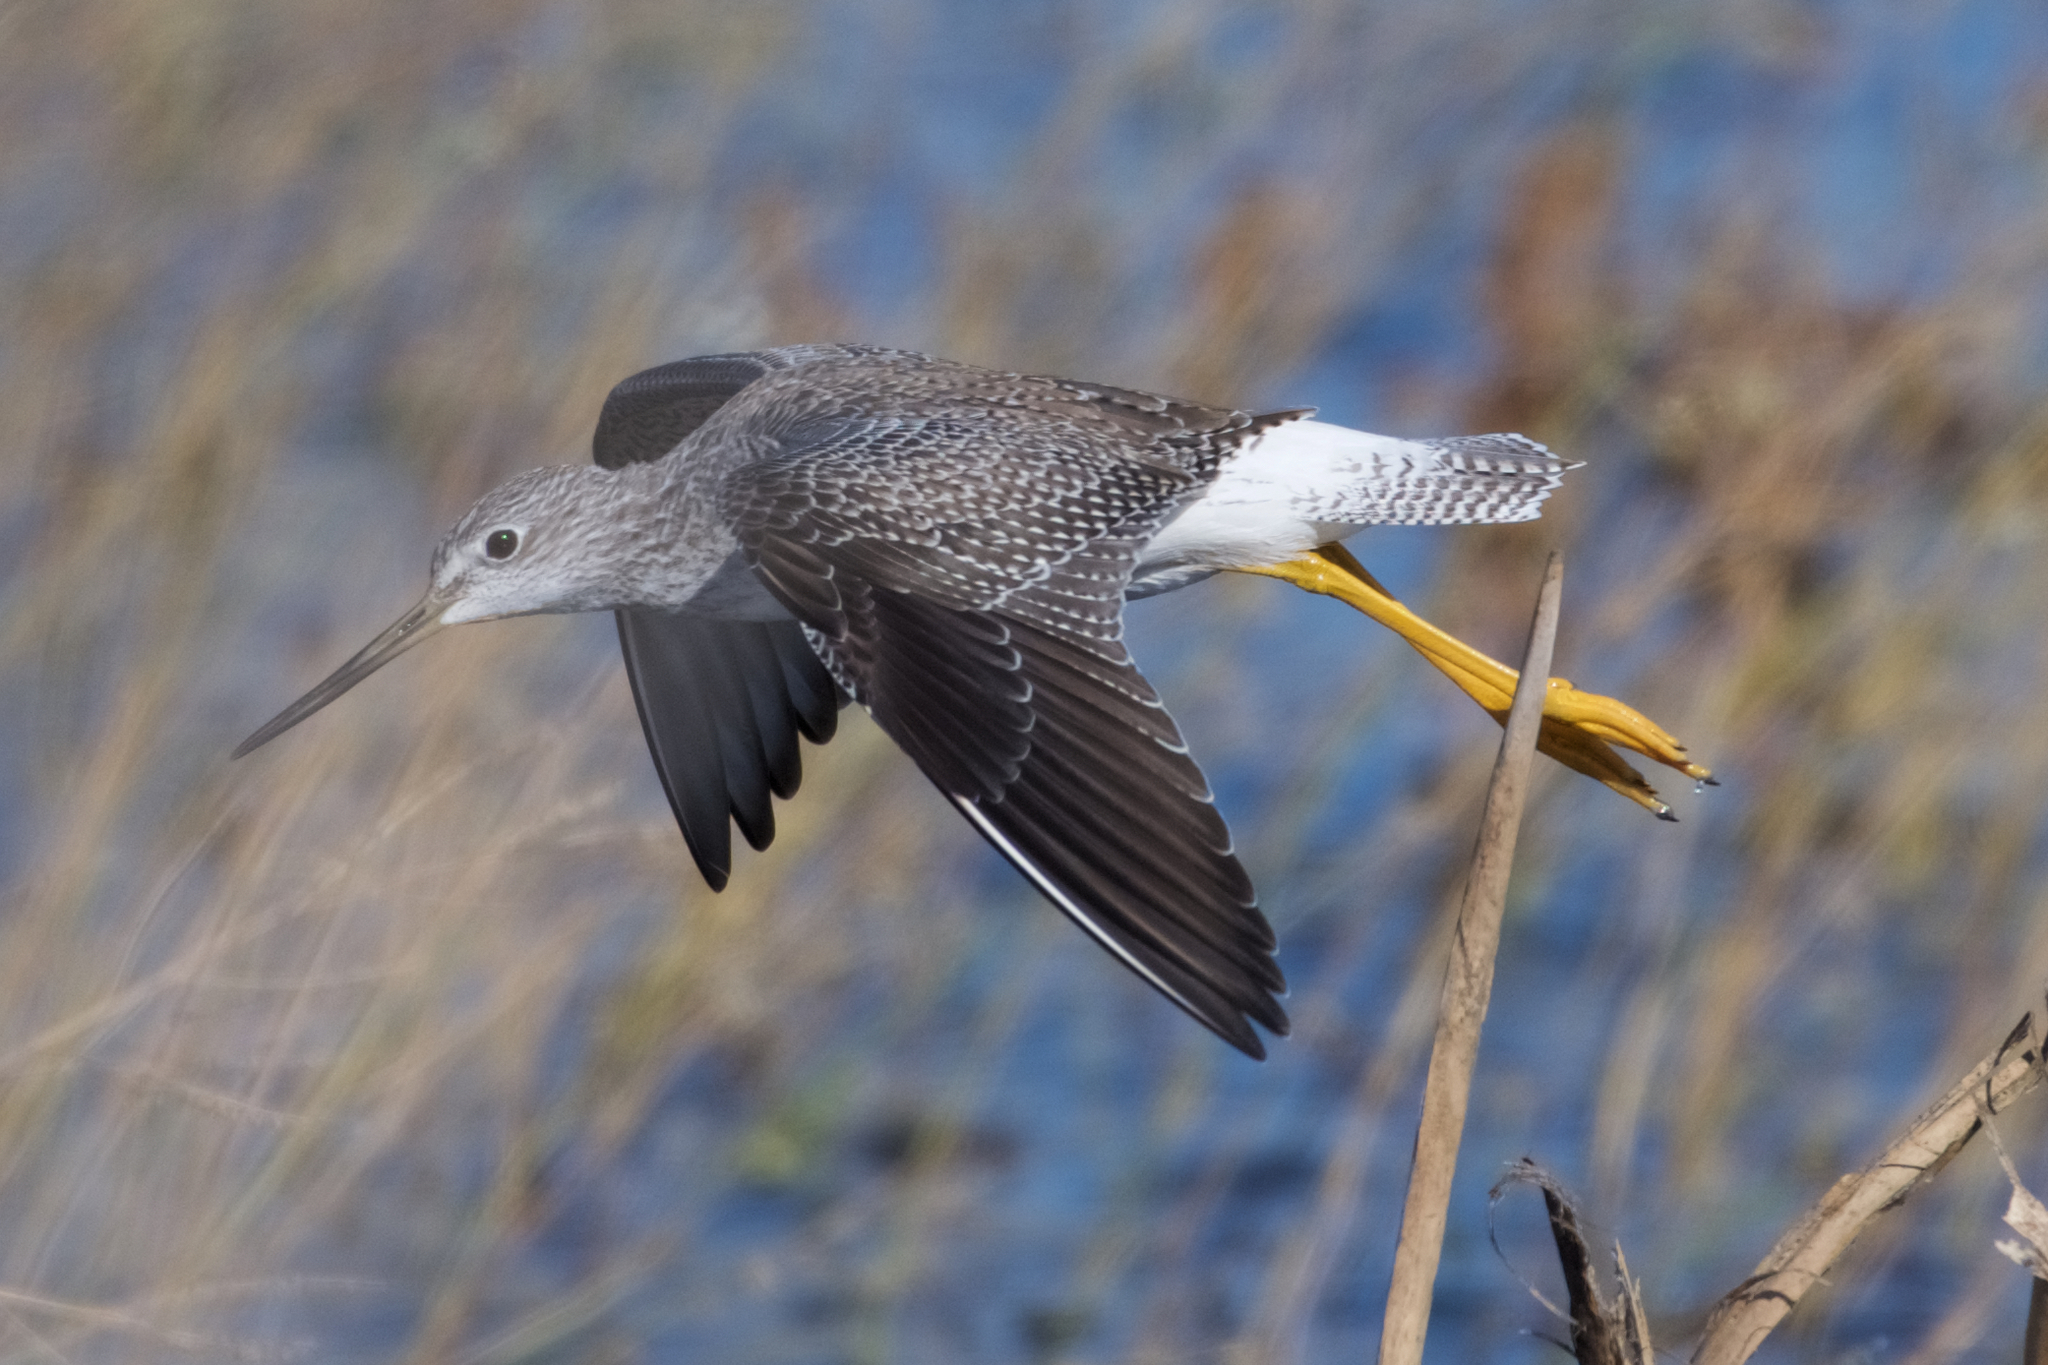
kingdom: Animalia
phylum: Chordata
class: Aves
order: Charadriiformes
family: Scolopacidae
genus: Tringa
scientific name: Tringa melanoleuca
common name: Greater yellowlegs
